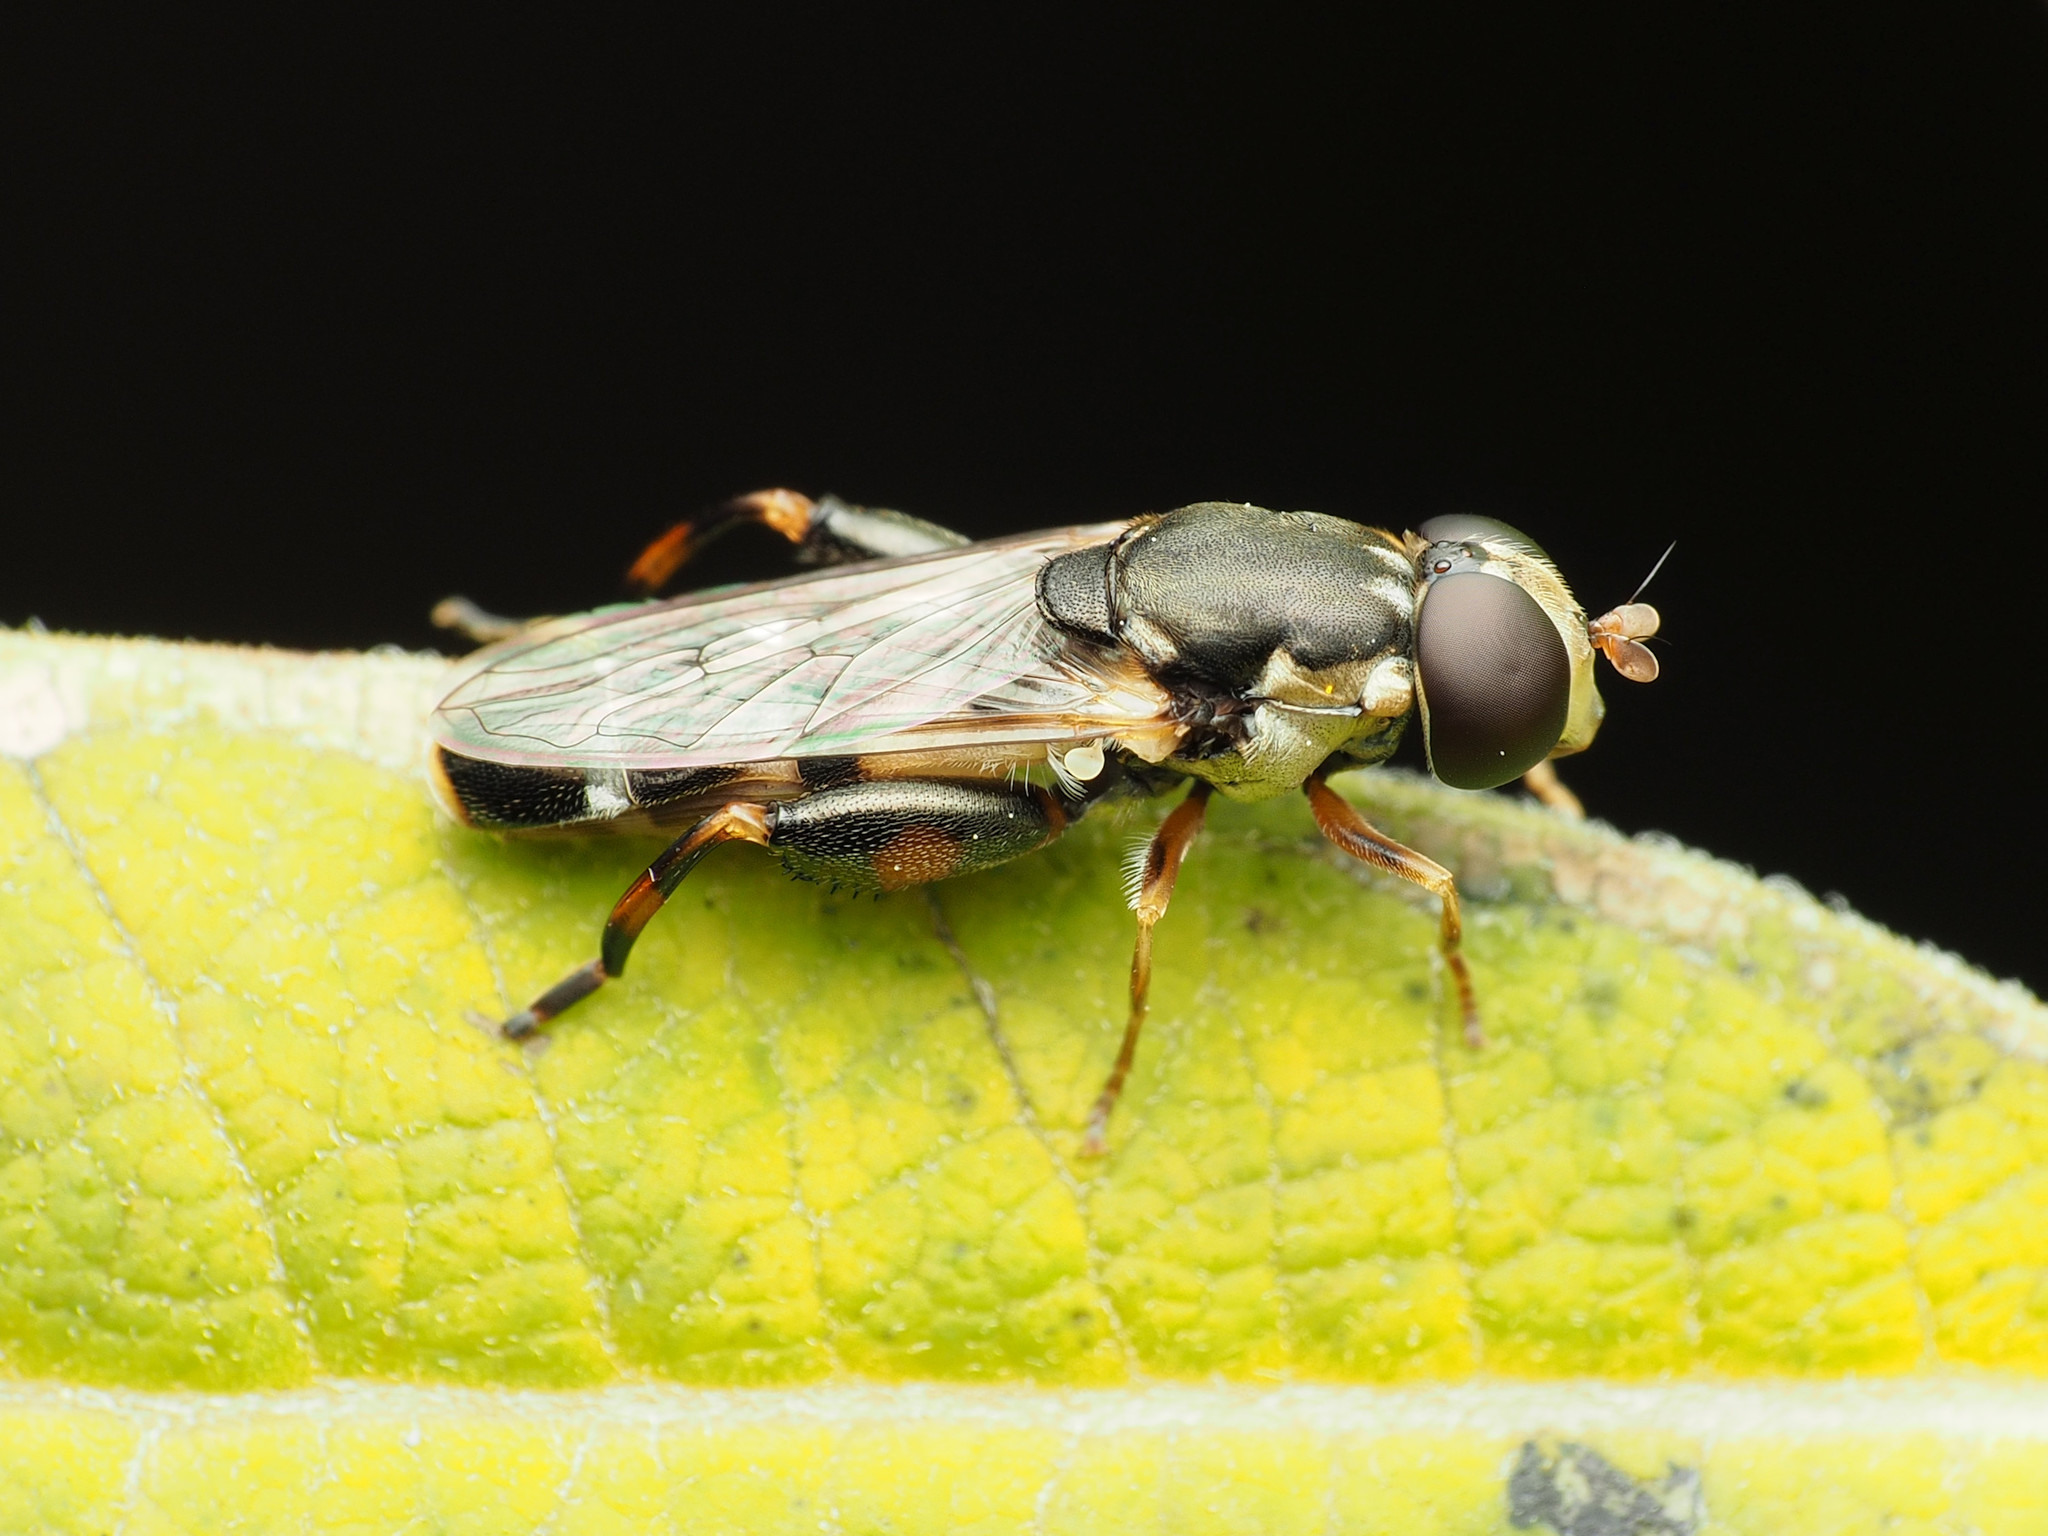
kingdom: Animalia
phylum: Arthropoda
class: Insecta
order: Diptera
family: Syrphidae
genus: Syritta
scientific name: Syritta pipiens
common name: Hover fly
